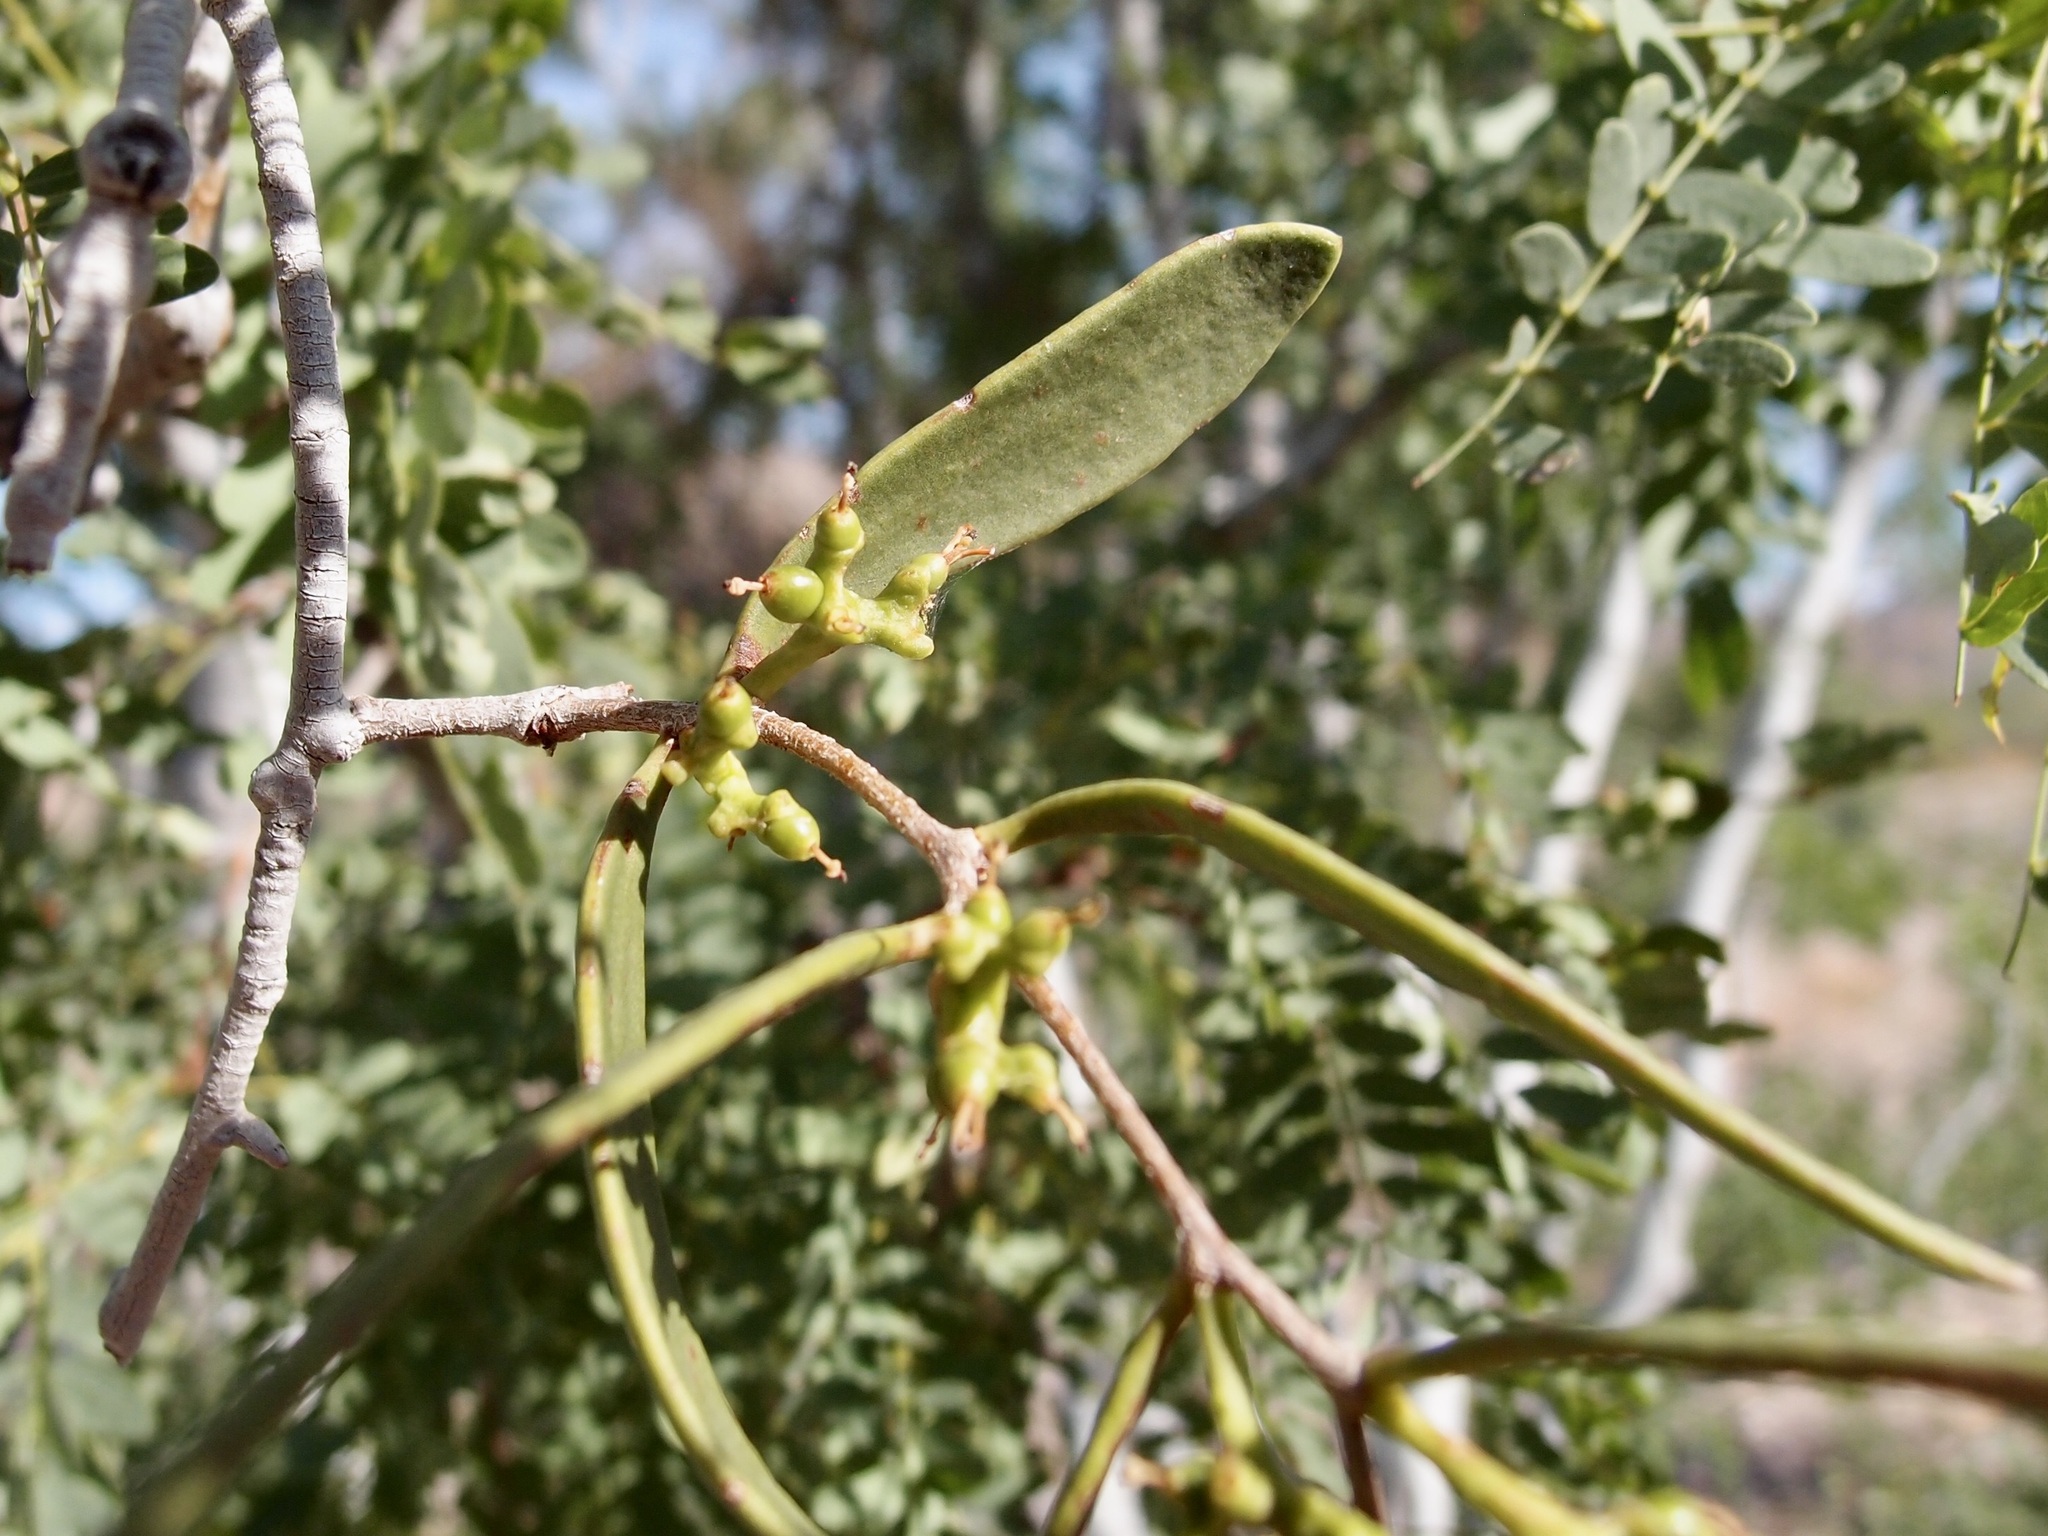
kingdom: Plantae
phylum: Tracheophyta
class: Magnoliopsida
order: Santalales
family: Loranthaceae
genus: Struthanthus
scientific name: Struthanthus palmeri
